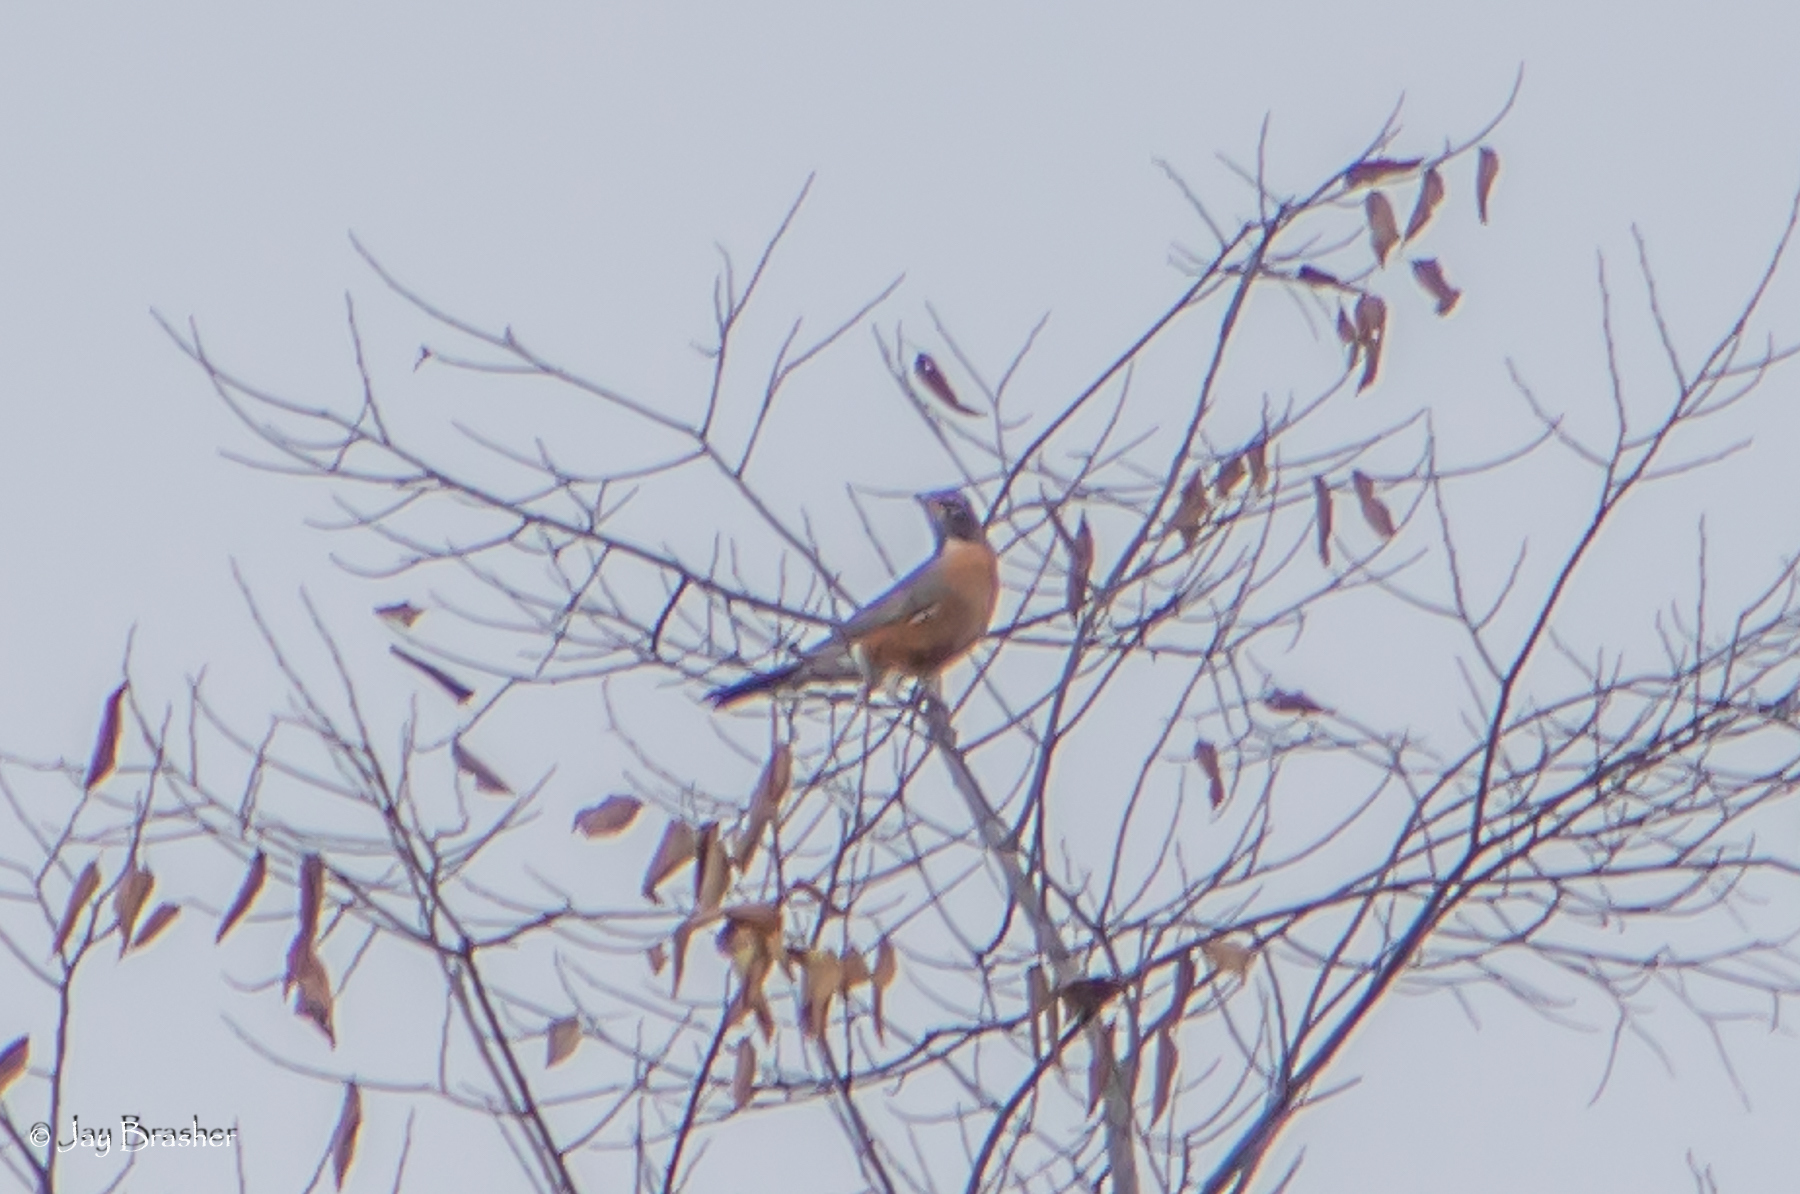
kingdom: Animalia
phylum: Chordata
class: Aves
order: Passeriformes
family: Turdidae
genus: Turdus
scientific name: Turdus migratorius
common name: American robin
